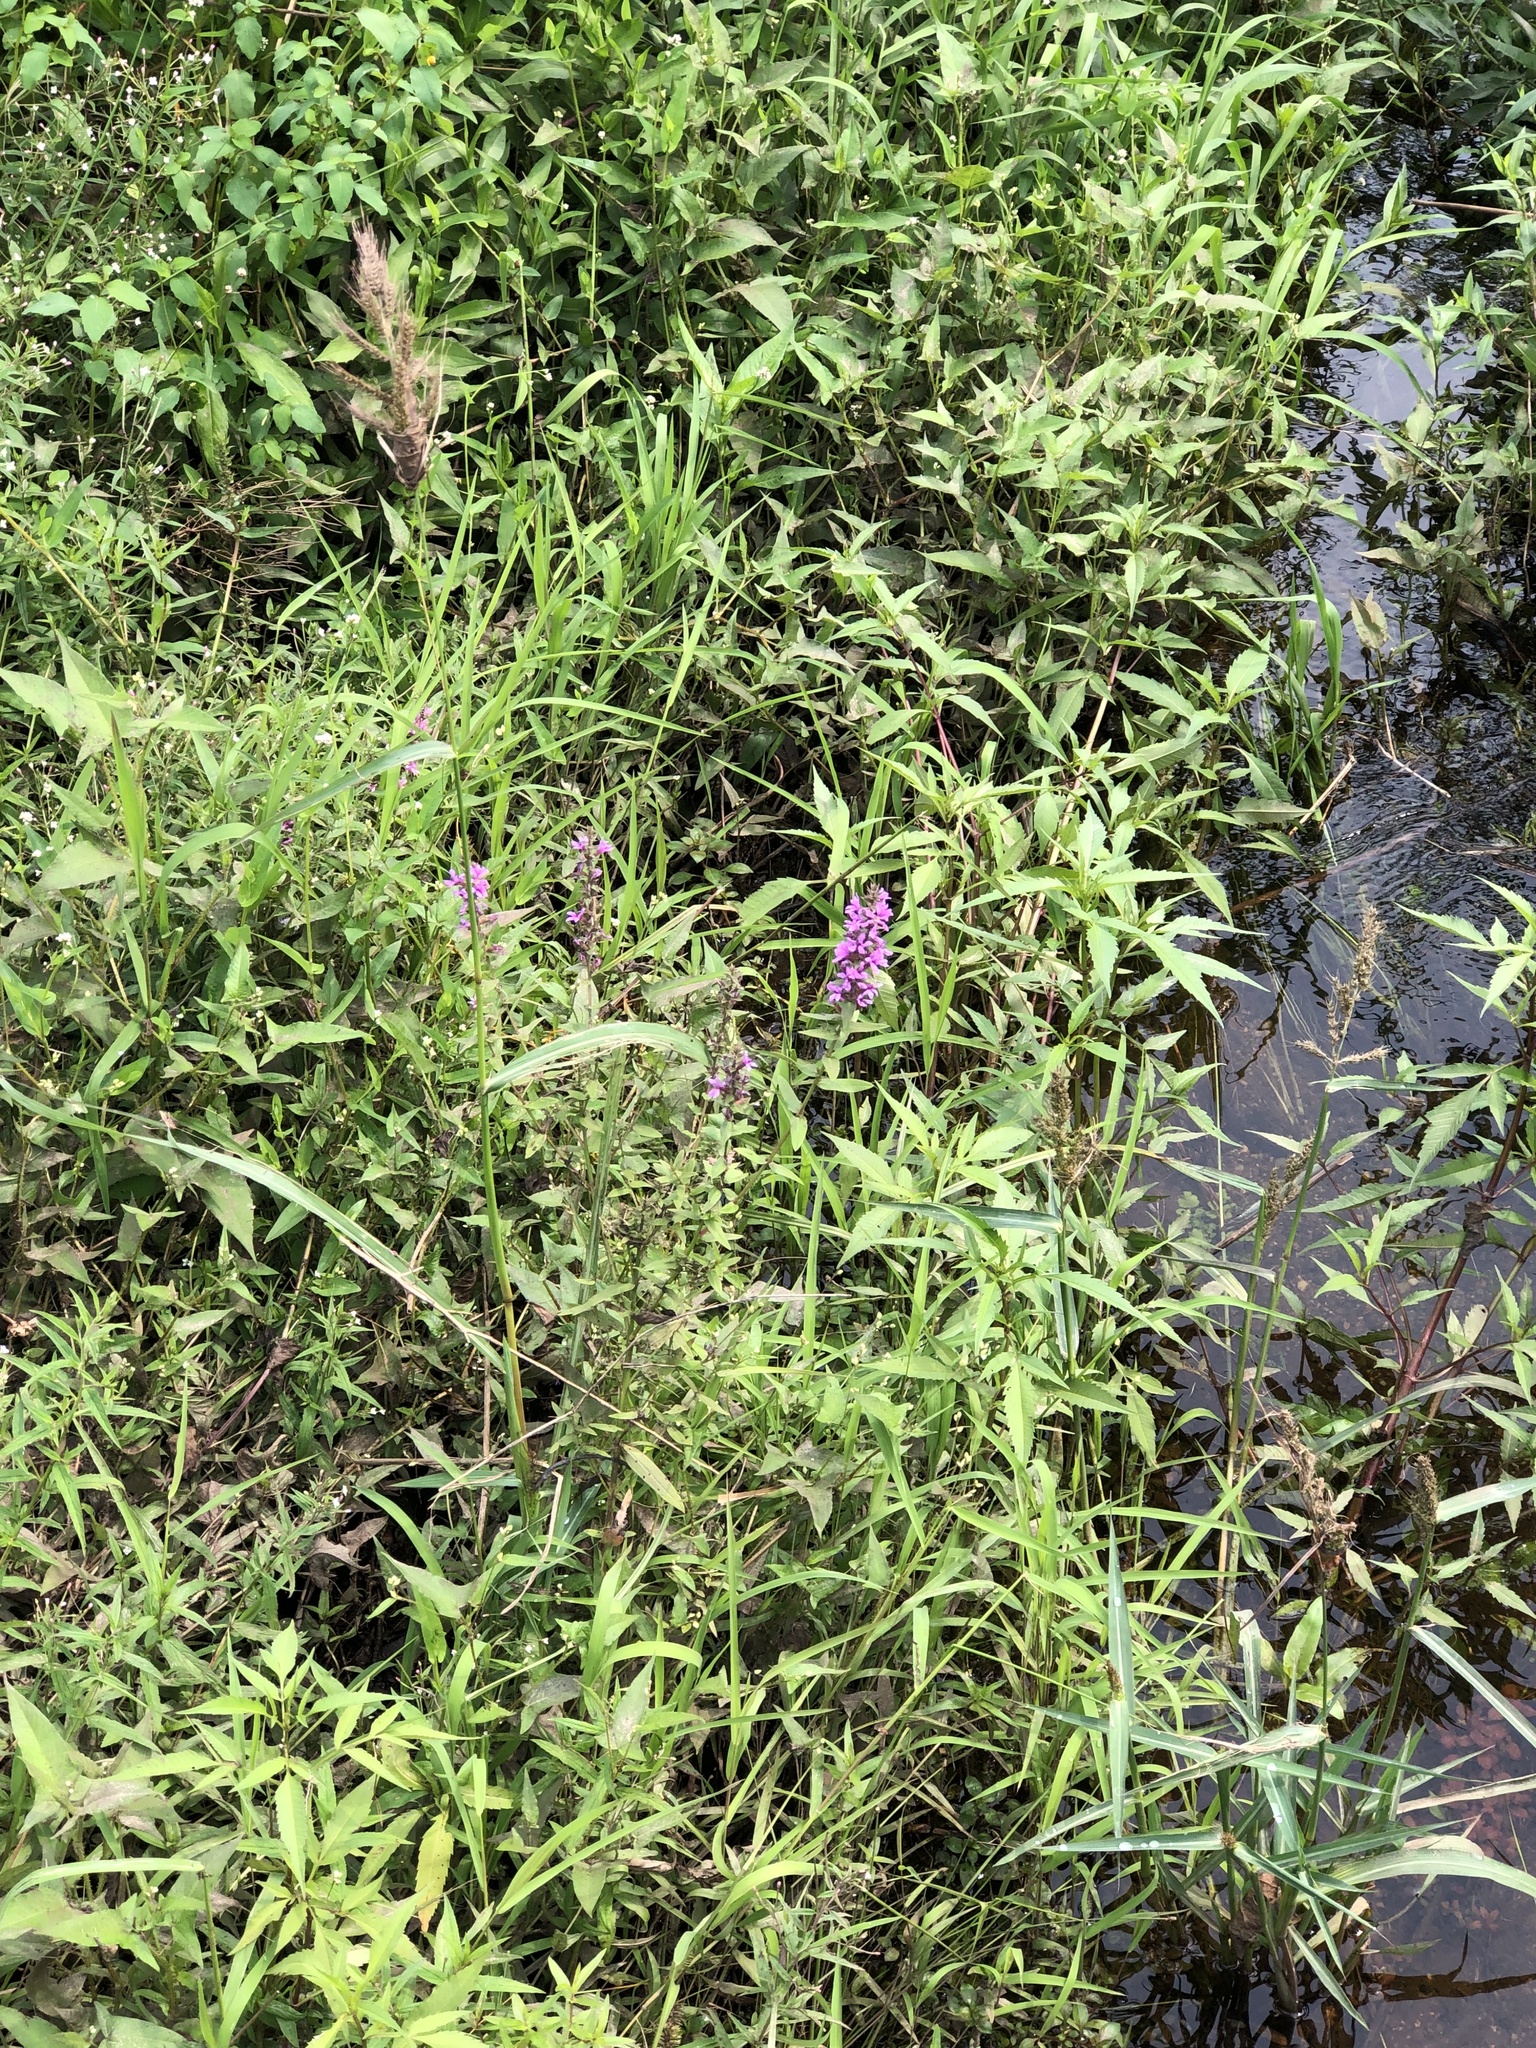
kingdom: Plantae
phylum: Tracheophyta
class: Magnoliopsida
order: Myrtales
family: Lythraceae
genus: Lythrum
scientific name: Lythrum salicaria
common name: Purple loosestrife
